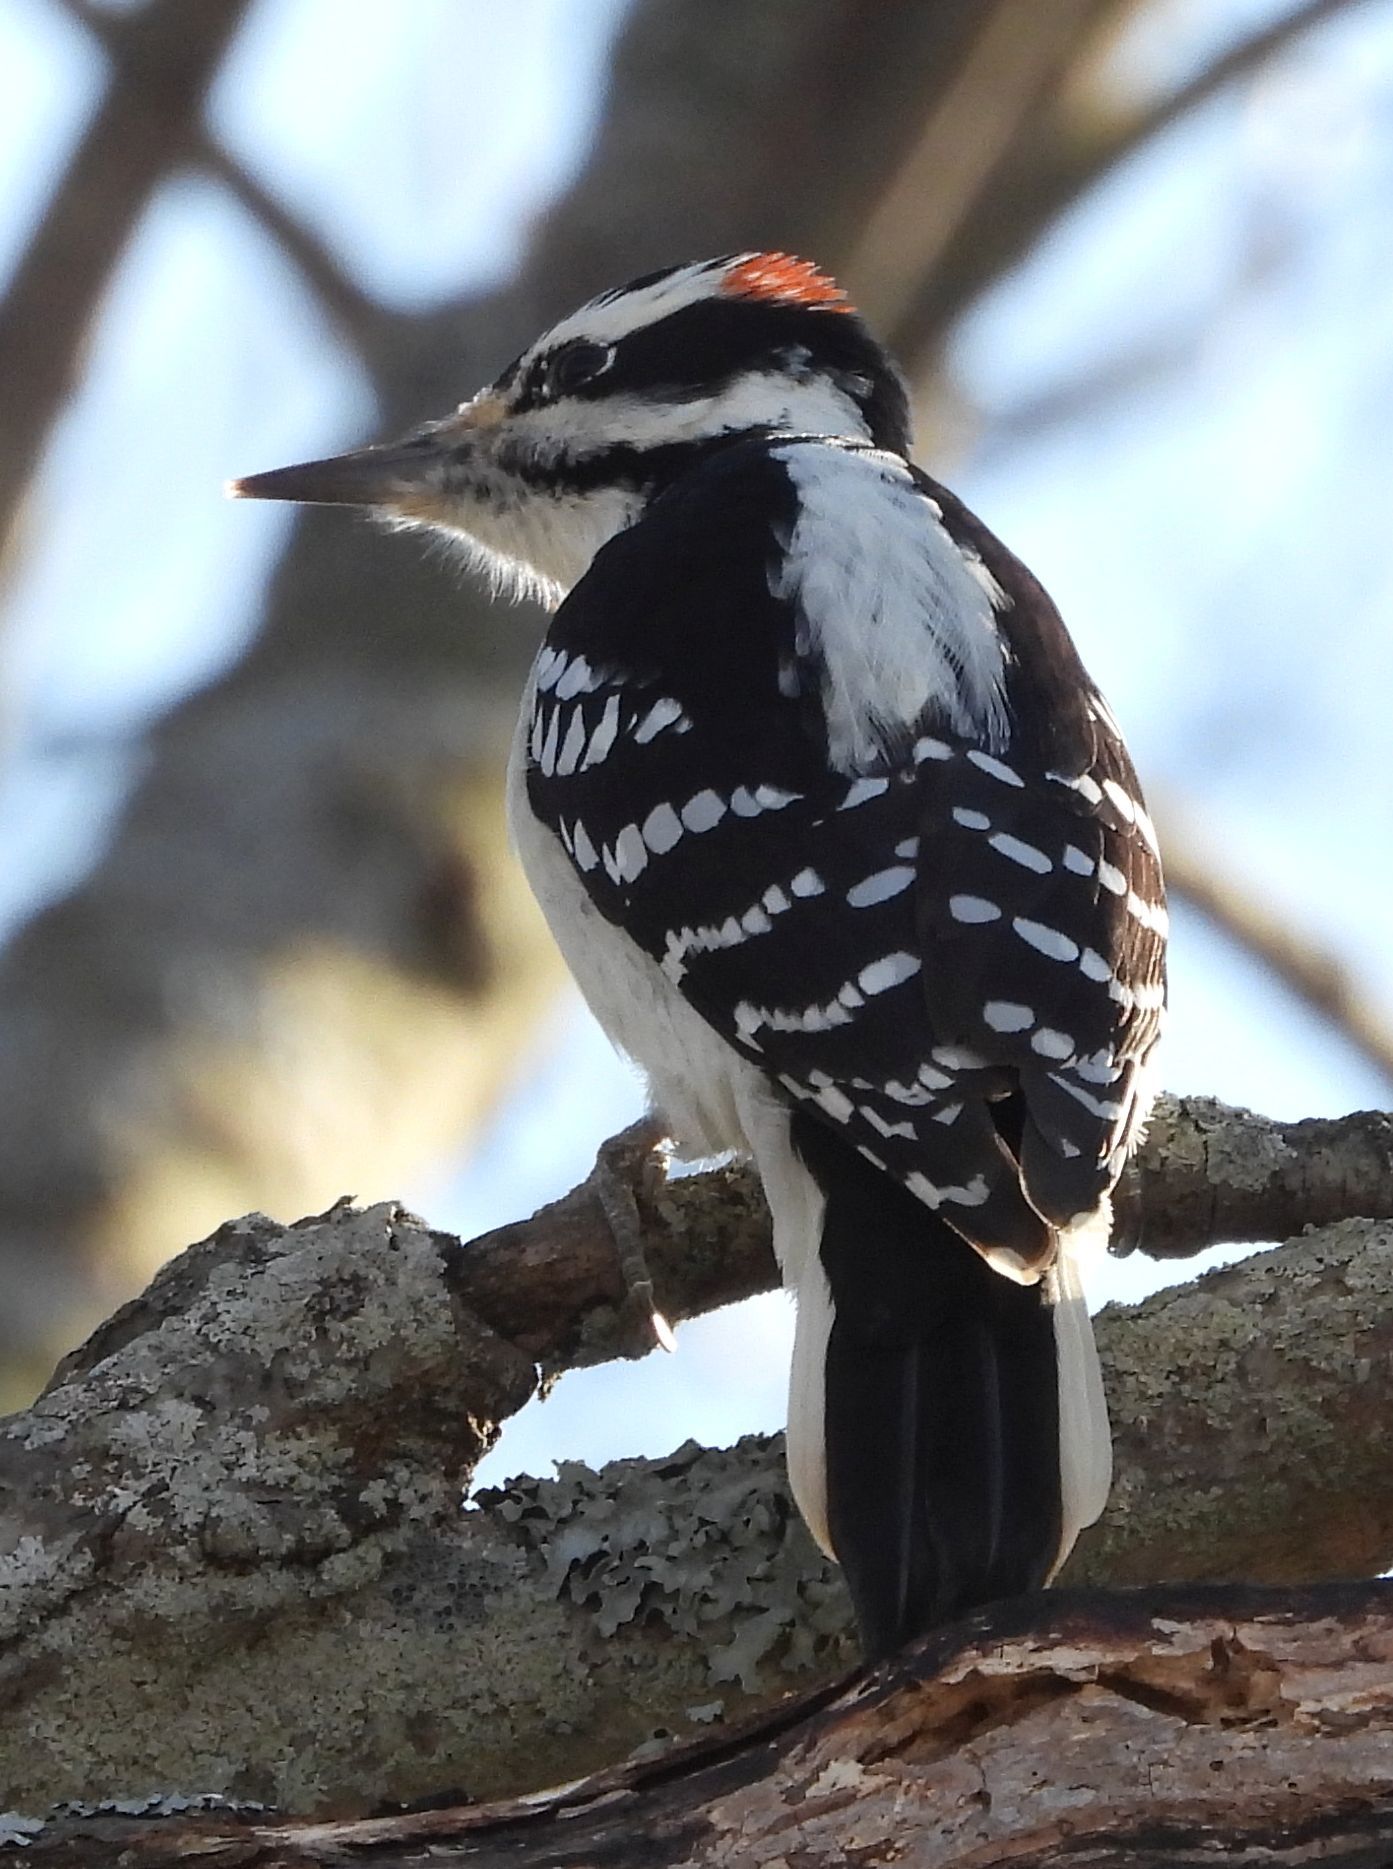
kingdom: Animalia
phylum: Chordata
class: Aves
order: Piciformes
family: Picidae
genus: Leuconotopicus
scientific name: Leuconotopicus villosus
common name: Hairy woodpecker
